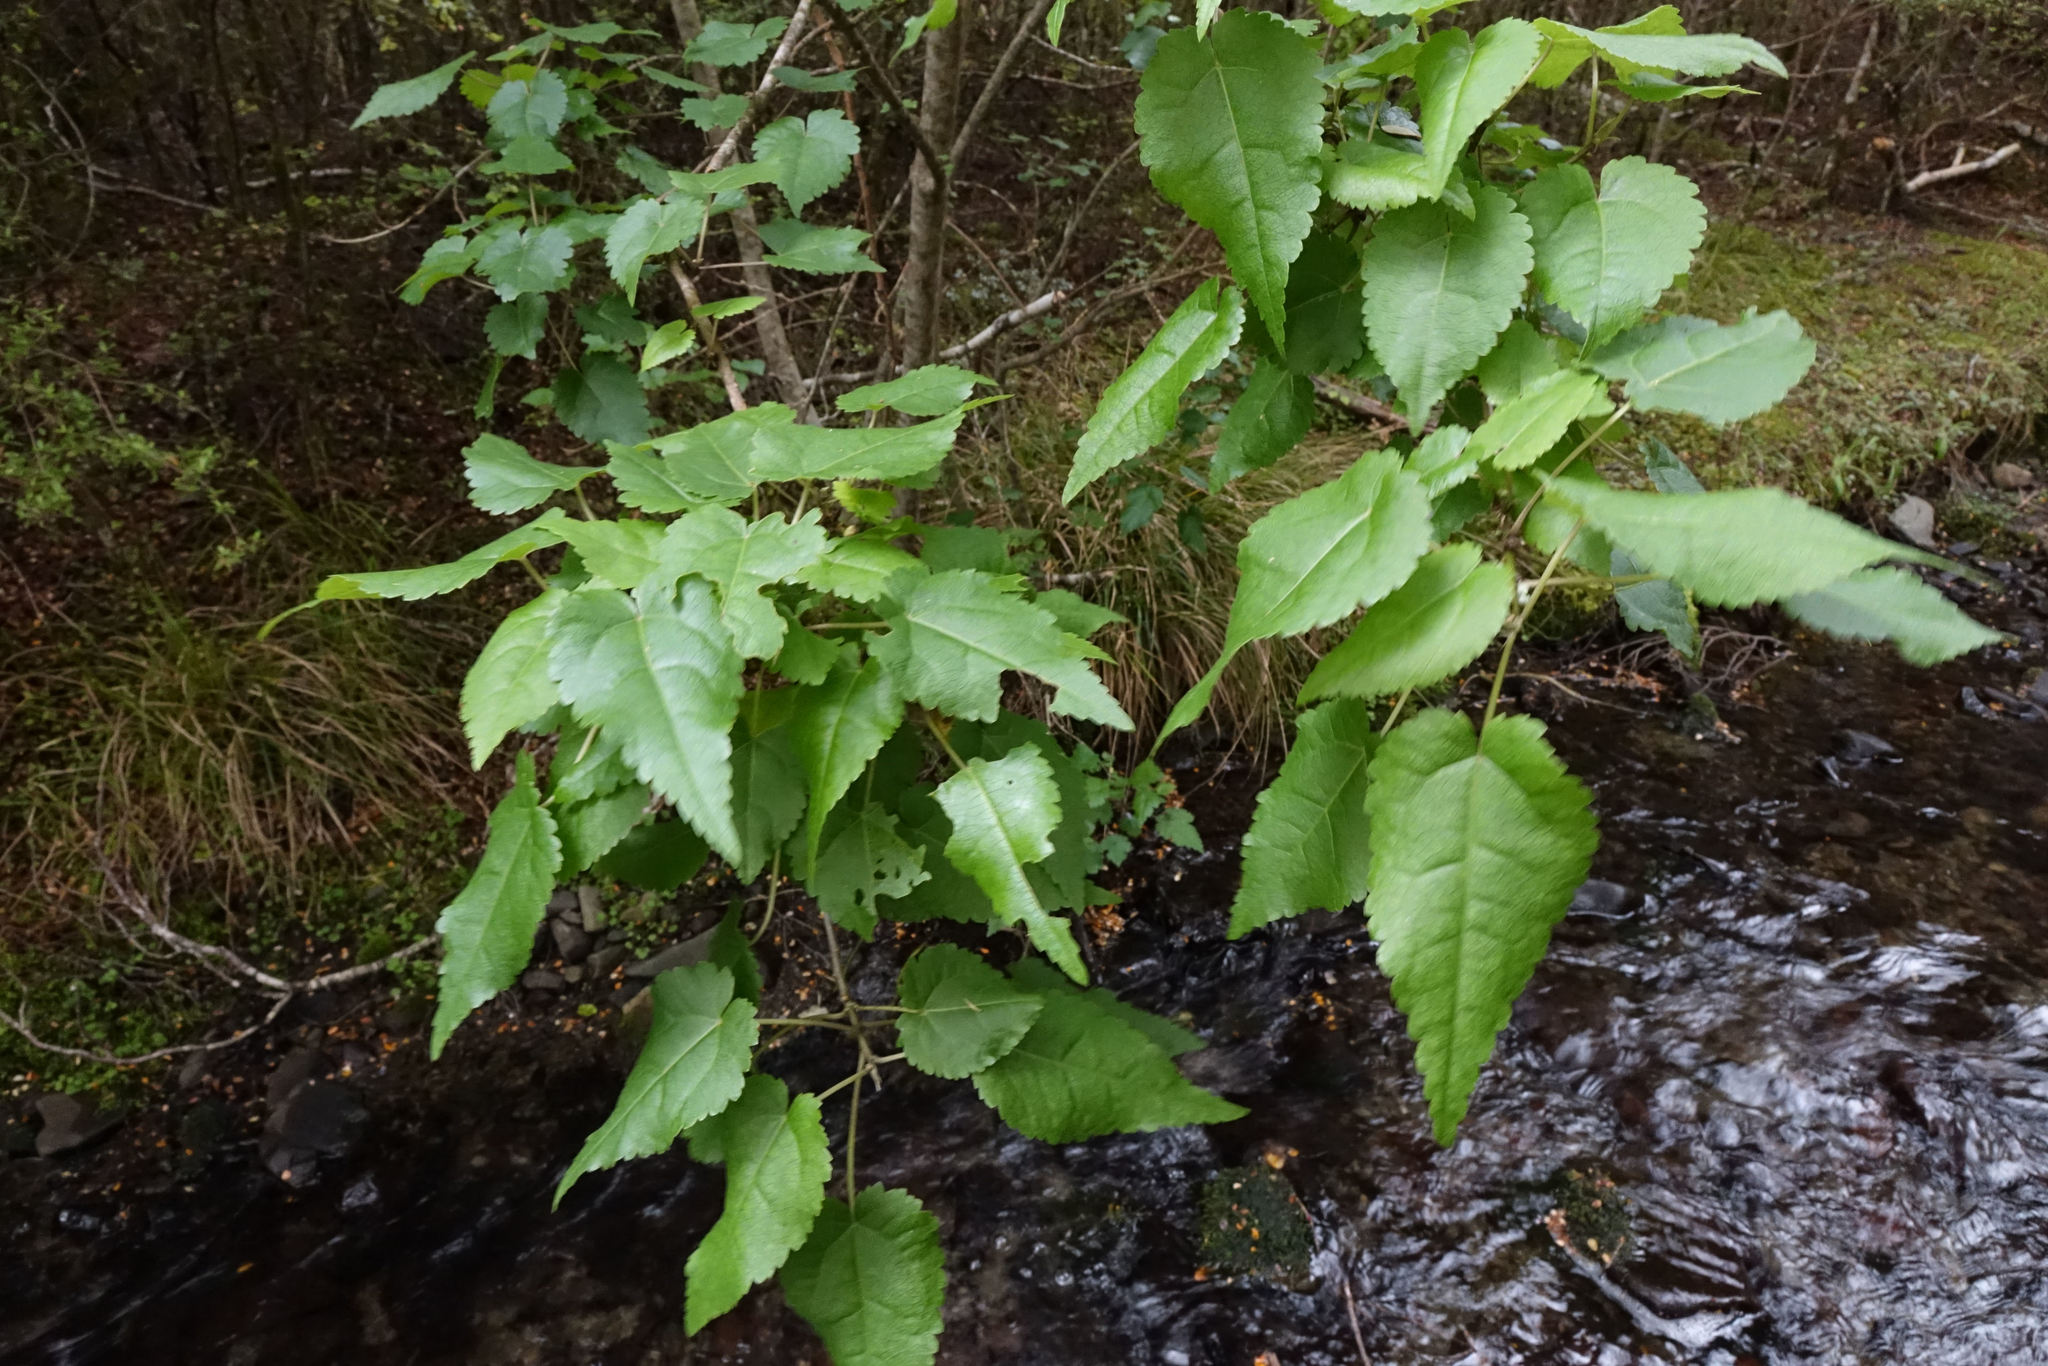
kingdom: Plantae
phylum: Tracheophyta
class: Magnoliopsida
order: Malvales
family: Malvaceae
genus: Hoheria
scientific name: Hoheria lyallii
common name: Lacebark
